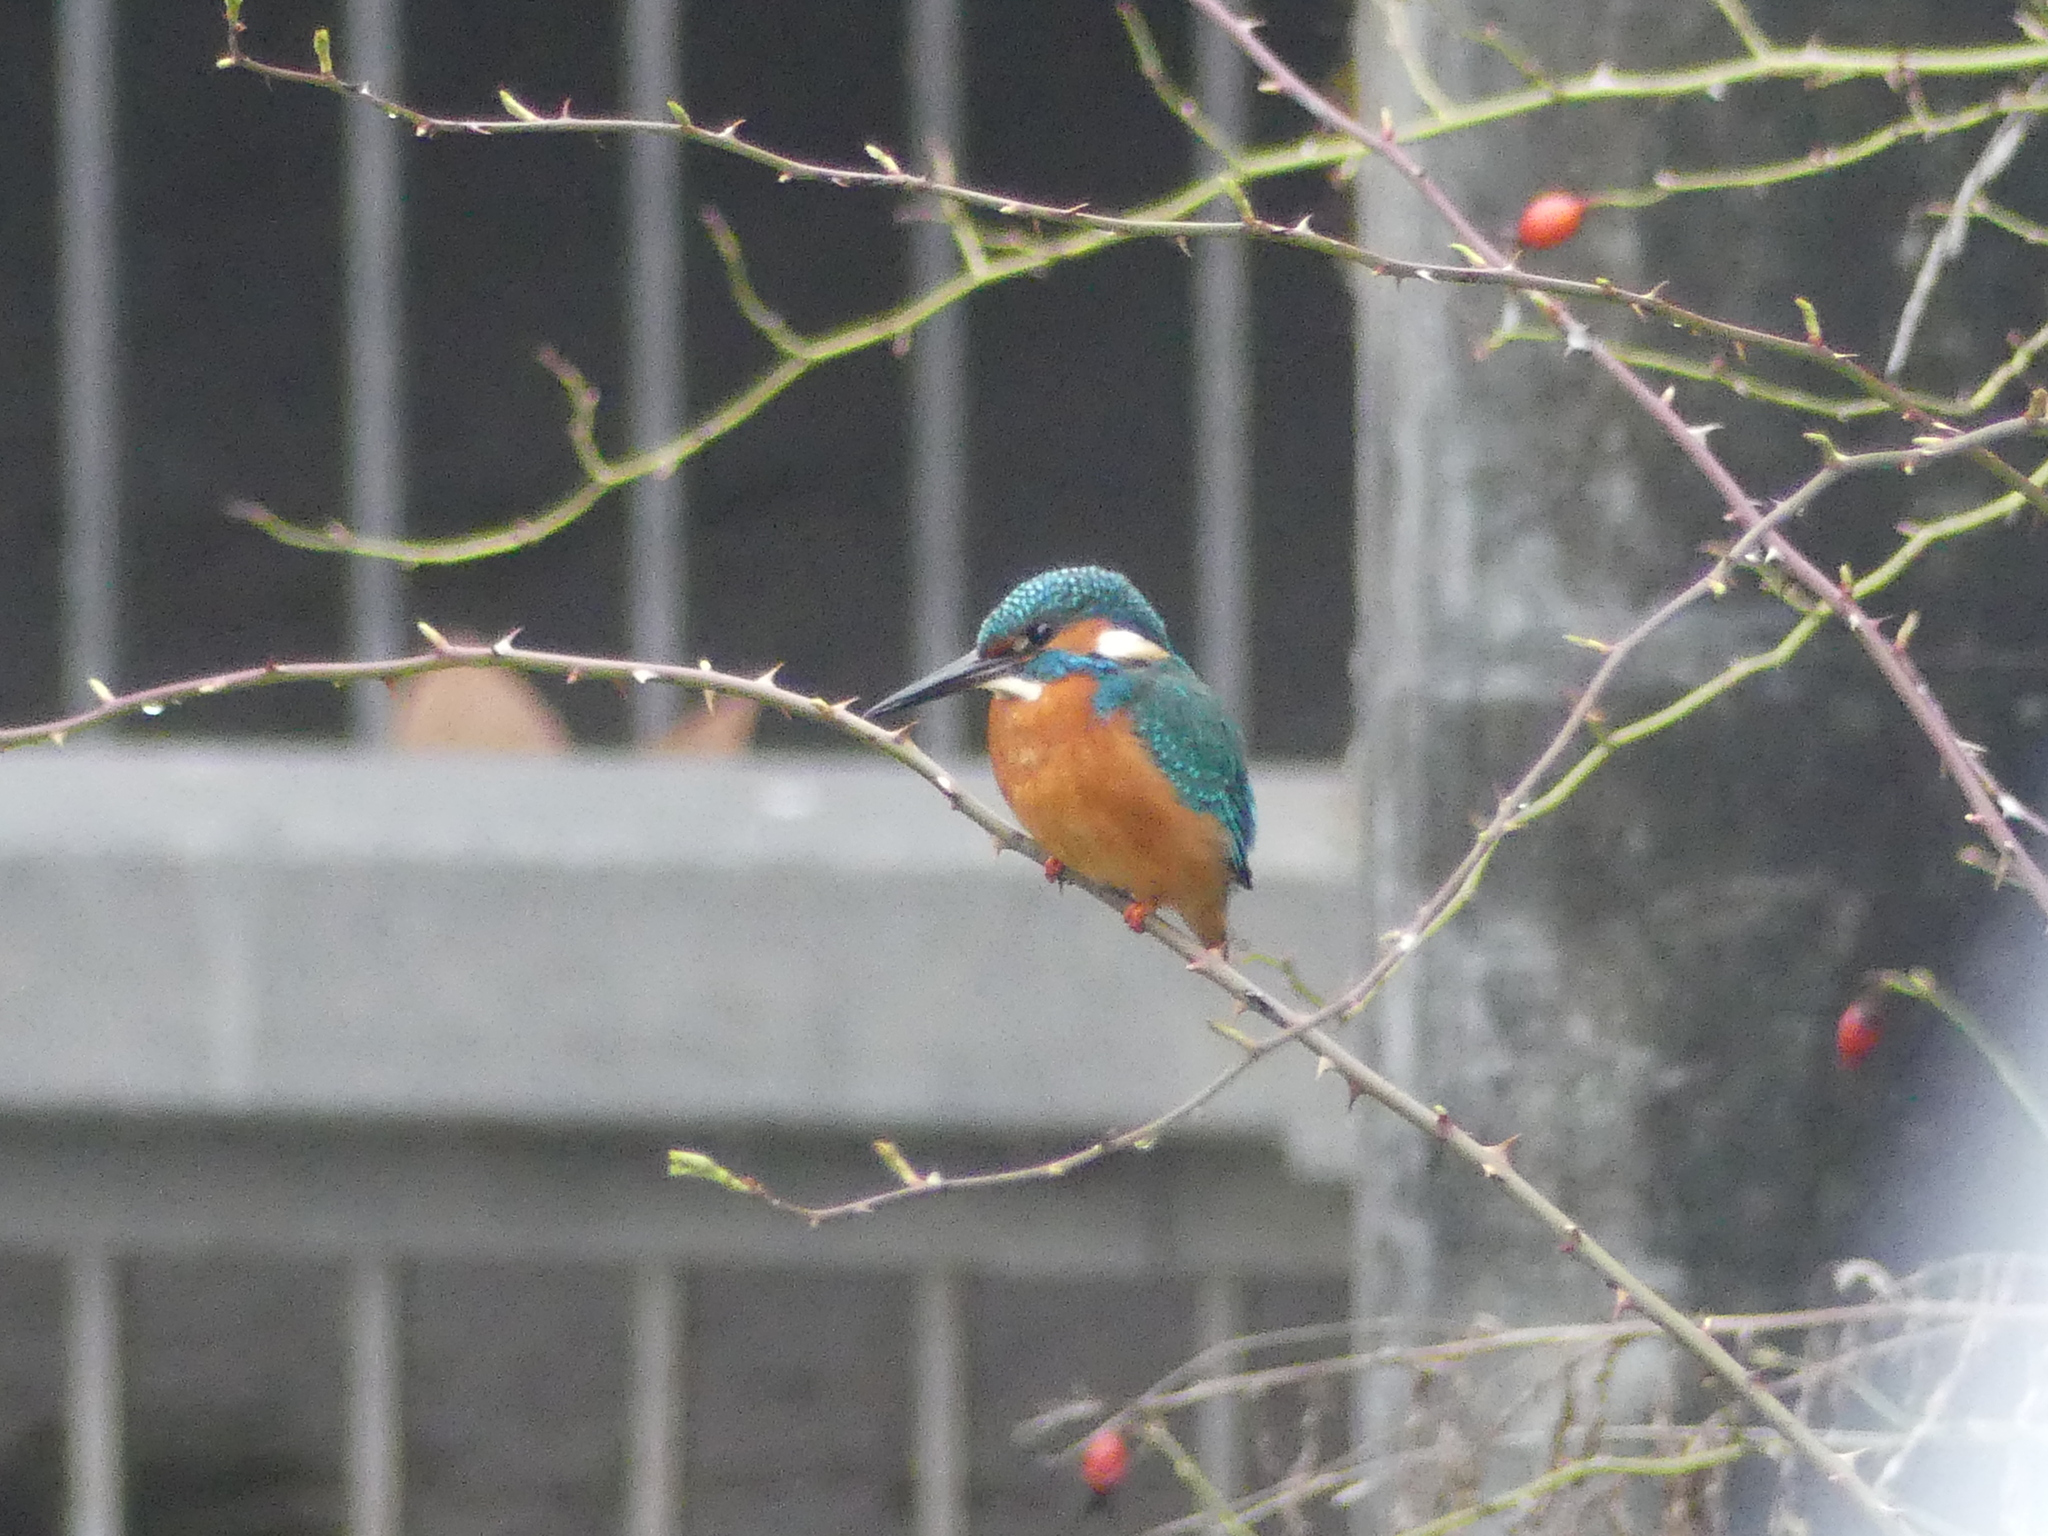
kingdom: Animalia
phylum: Chordata
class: Aves
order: Coraciiformes
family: Alcedinidae
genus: Alcedo
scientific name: Alcedo atthis
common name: Common kingfisher
